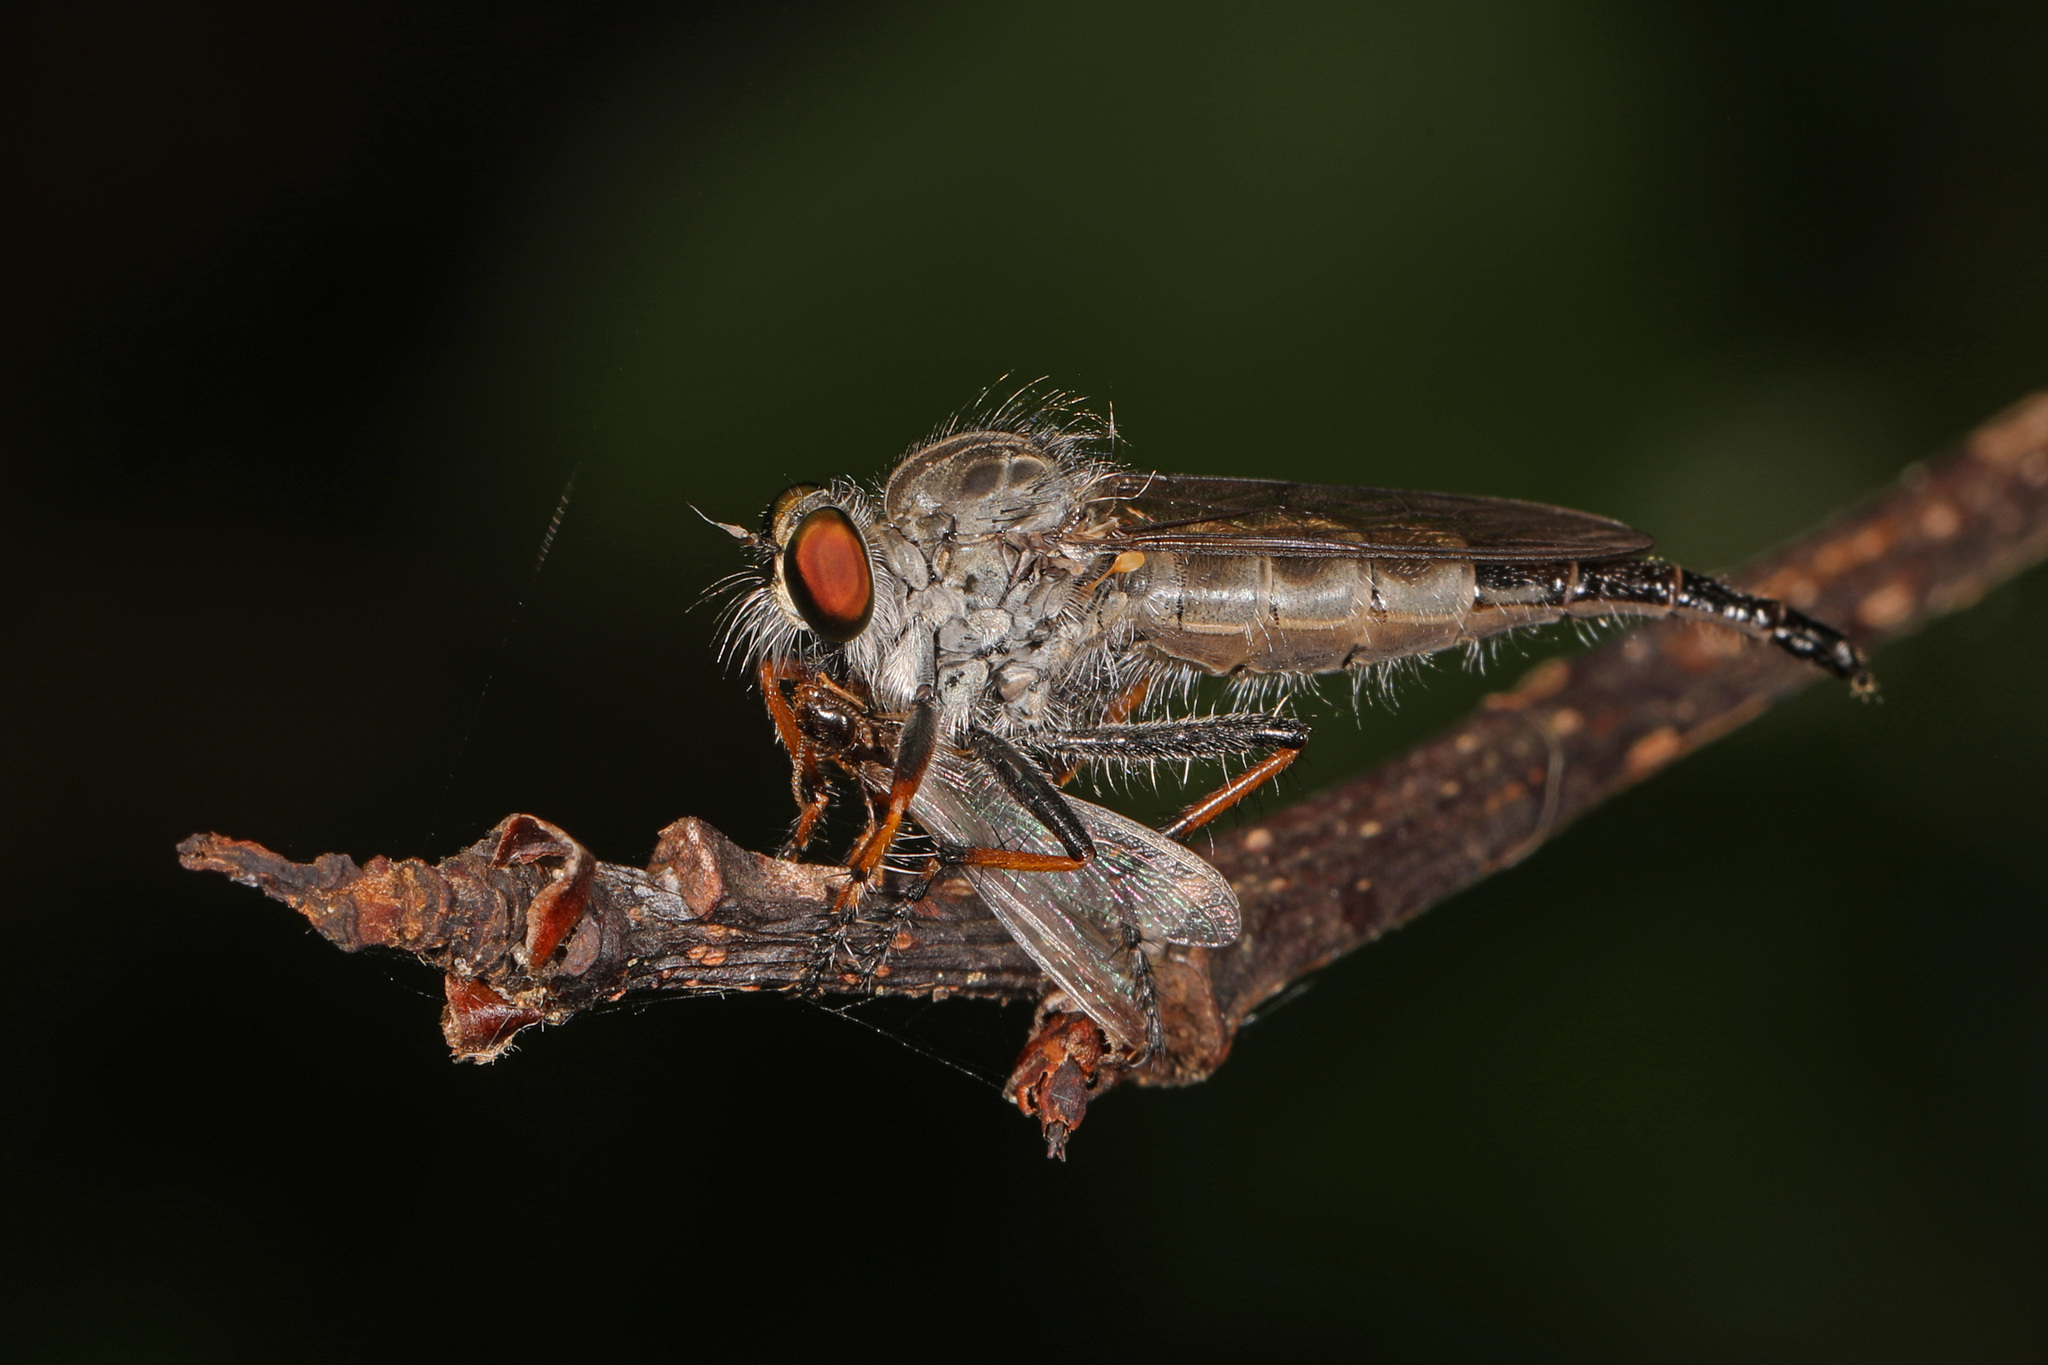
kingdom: Animalia
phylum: Arthropoda
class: Insecta
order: Diptera
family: Asilidae
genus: Asilus
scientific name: Asilus flavofemoratus
